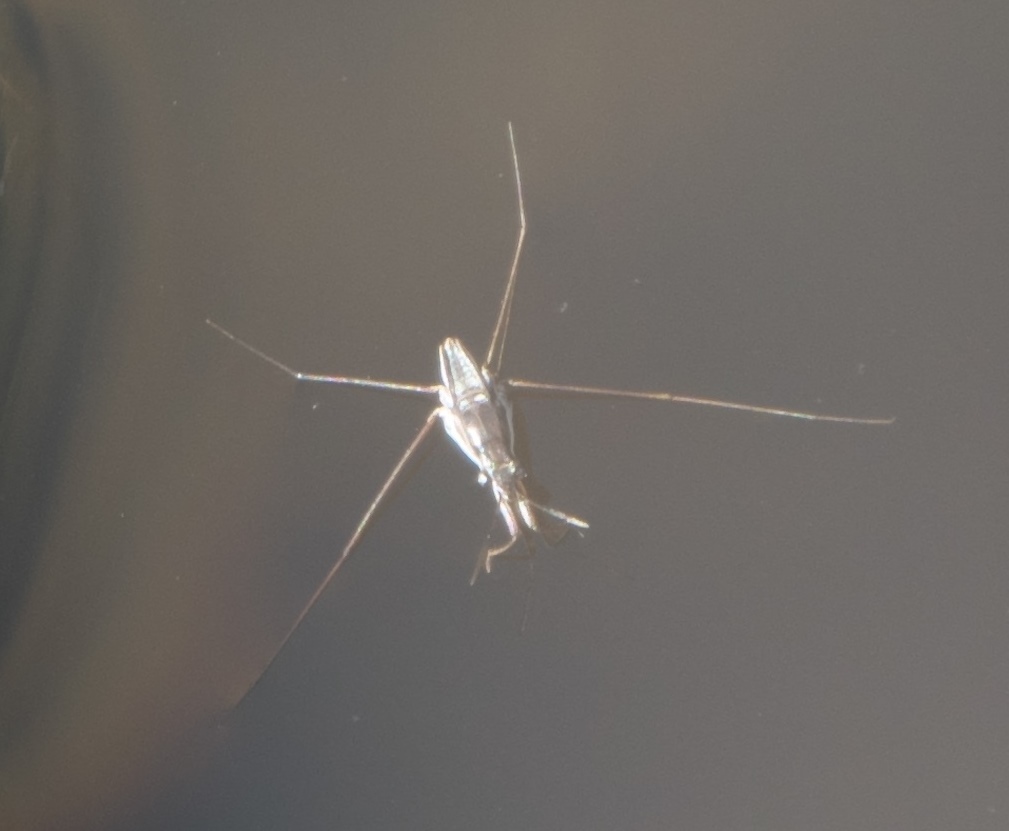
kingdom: Animalia
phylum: Arthropoda
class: Insecta
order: Hemiptera
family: Gerridae
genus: Neogerris
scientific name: Neogerris hesione
